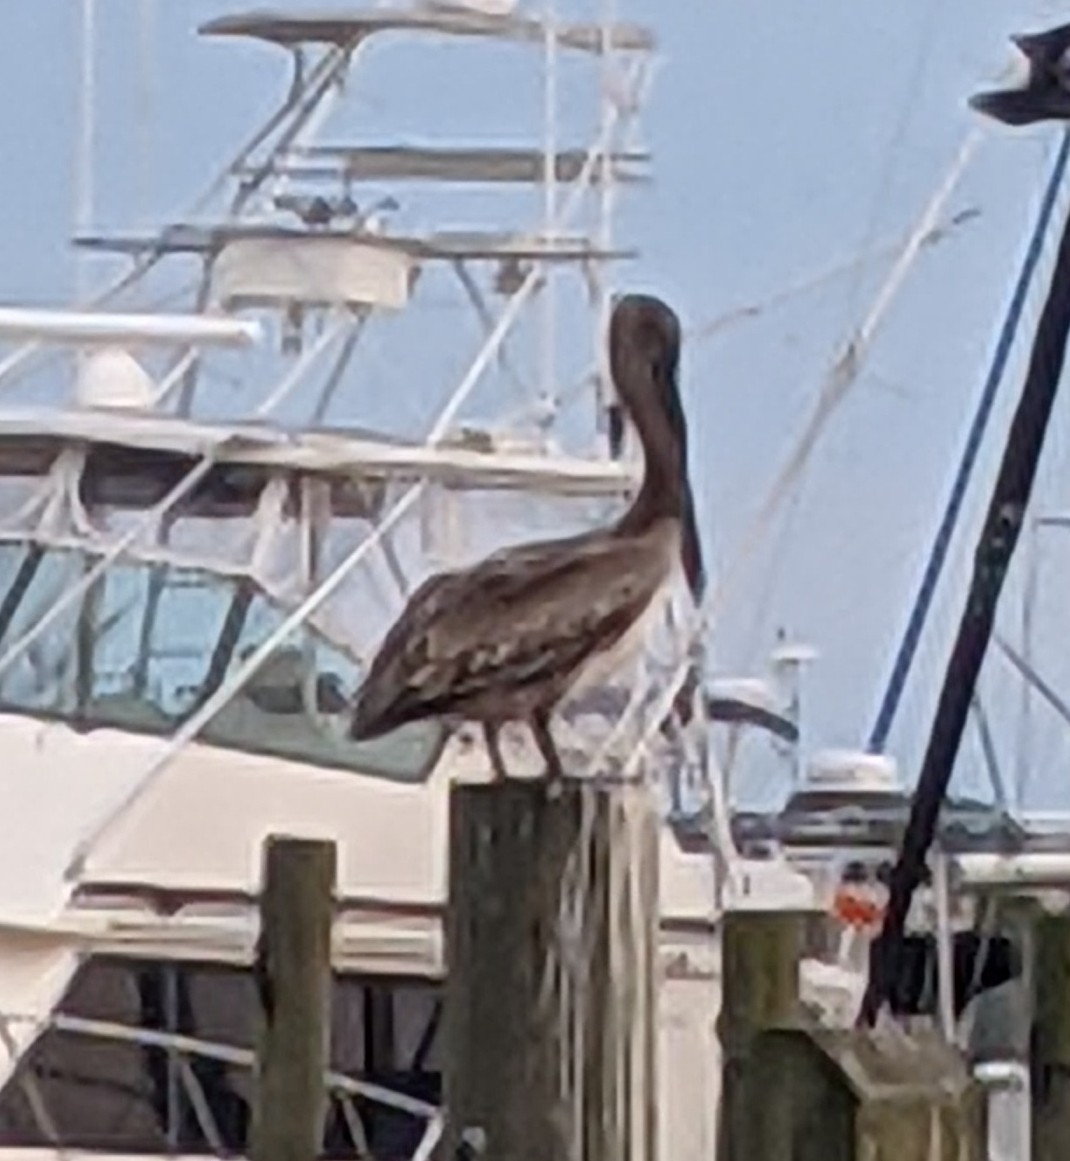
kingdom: Animalia
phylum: Chordata
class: Aves
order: Pelecaniformes
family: Pelecanidae
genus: Pelecanus
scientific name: Pelecanus occidentalis
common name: Brown pelican
